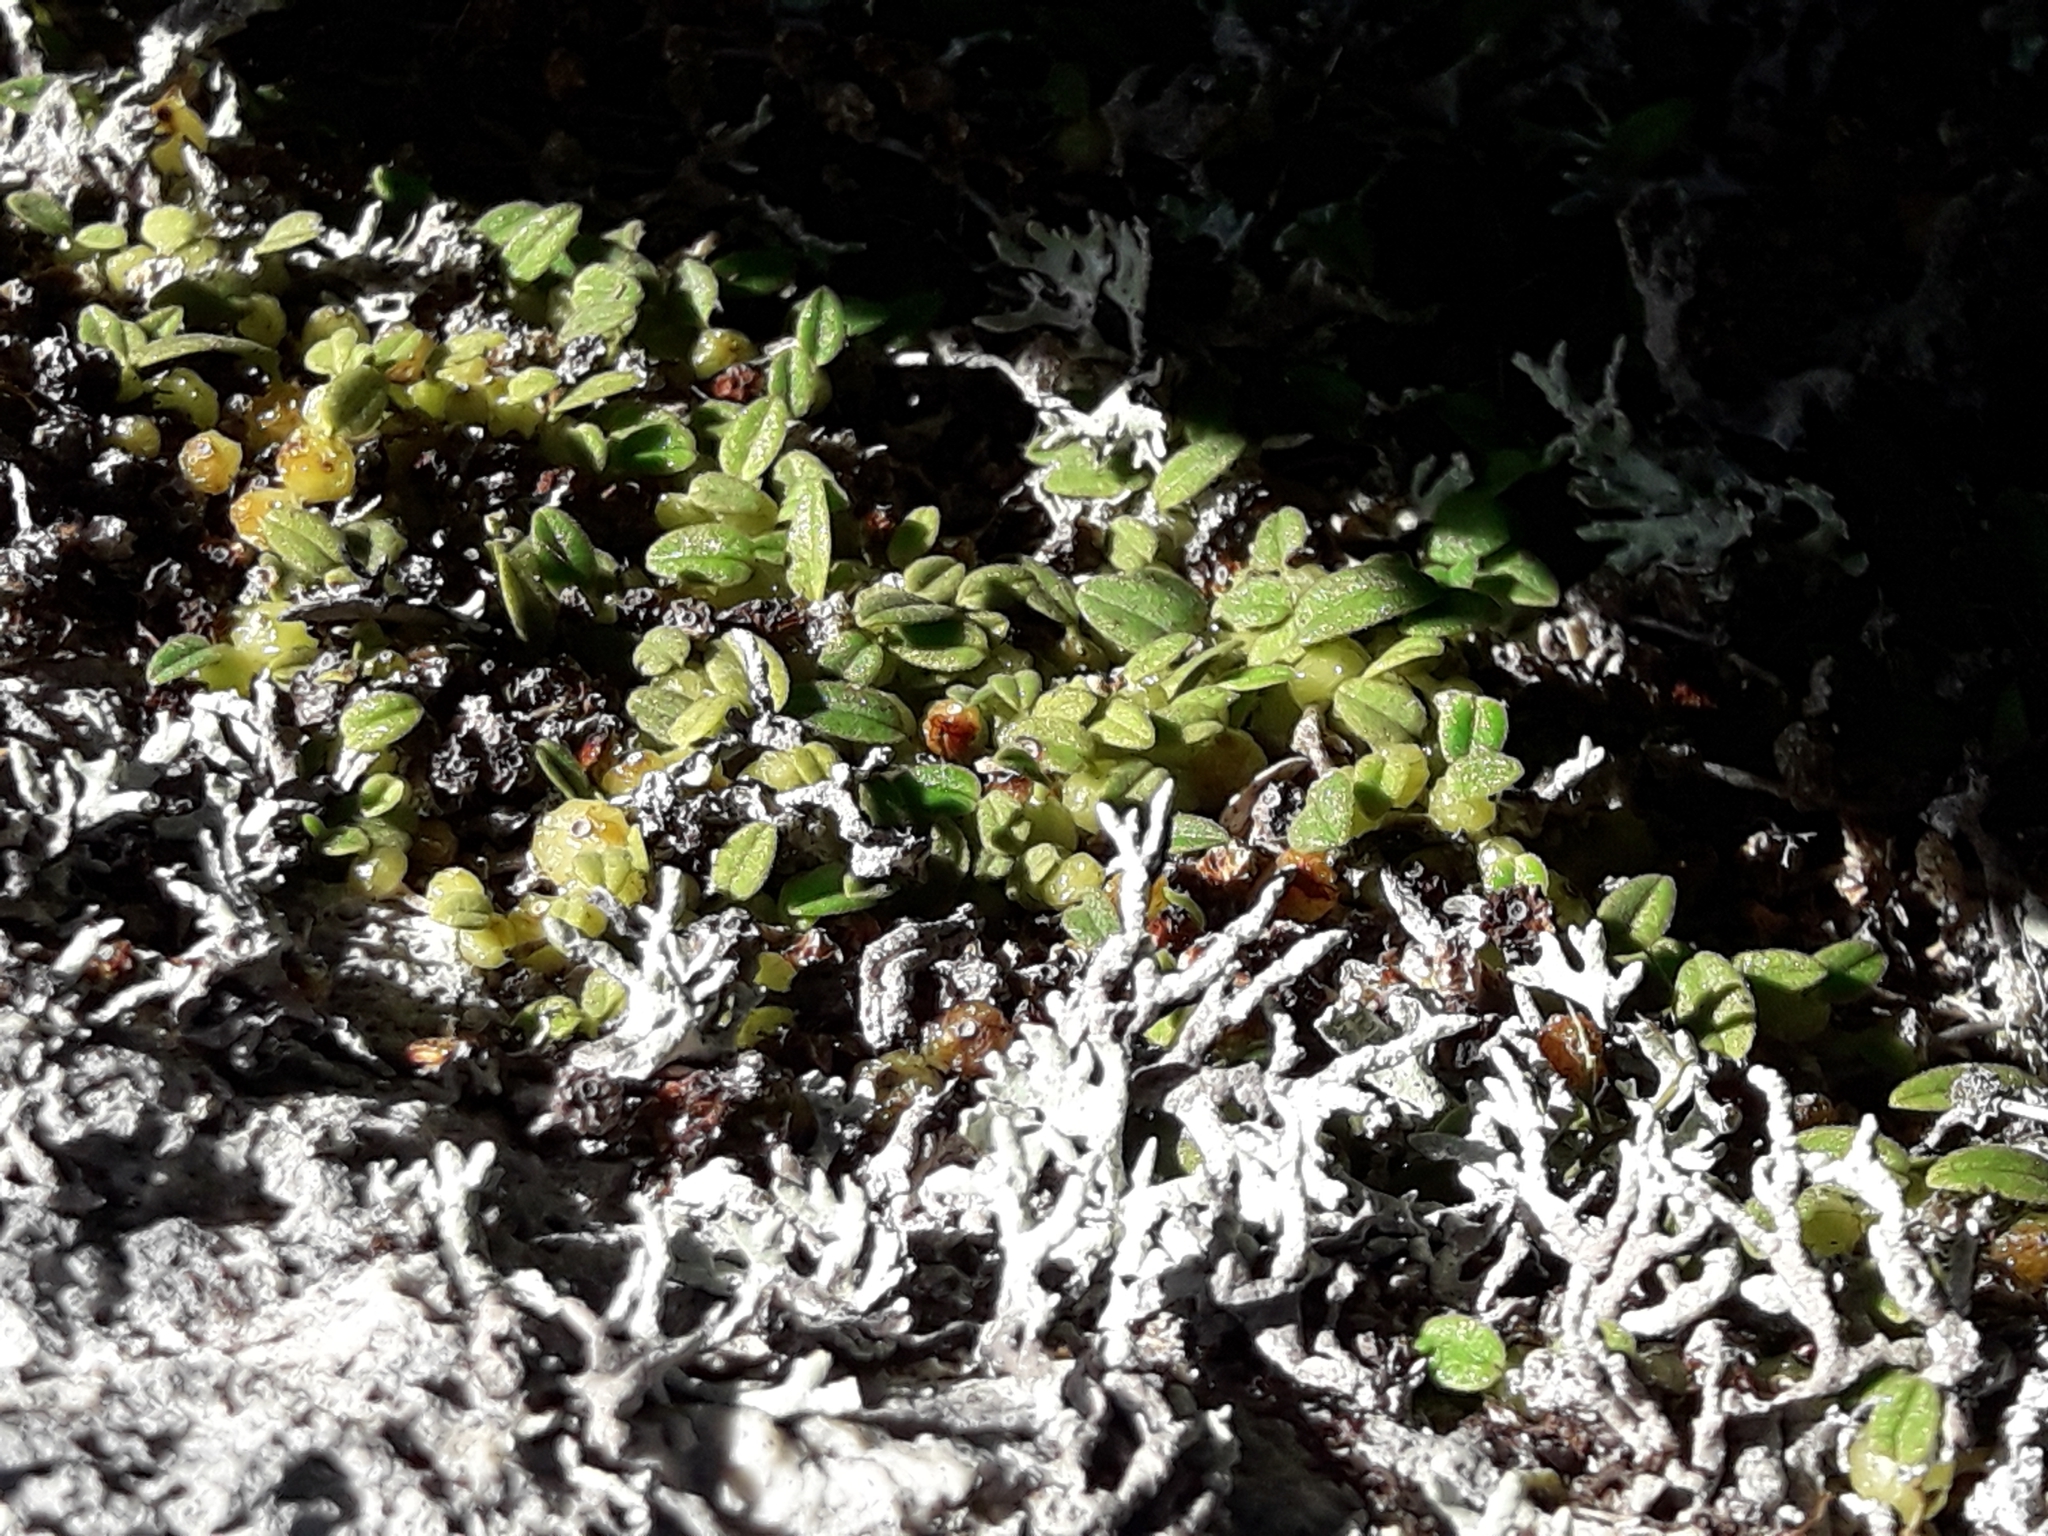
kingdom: Plantae
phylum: Tracheophyta
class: Liliopsida
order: Asparagales
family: Orchidaceae
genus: Bulbophyllum
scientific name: Bulbophyllum pygmaeum
